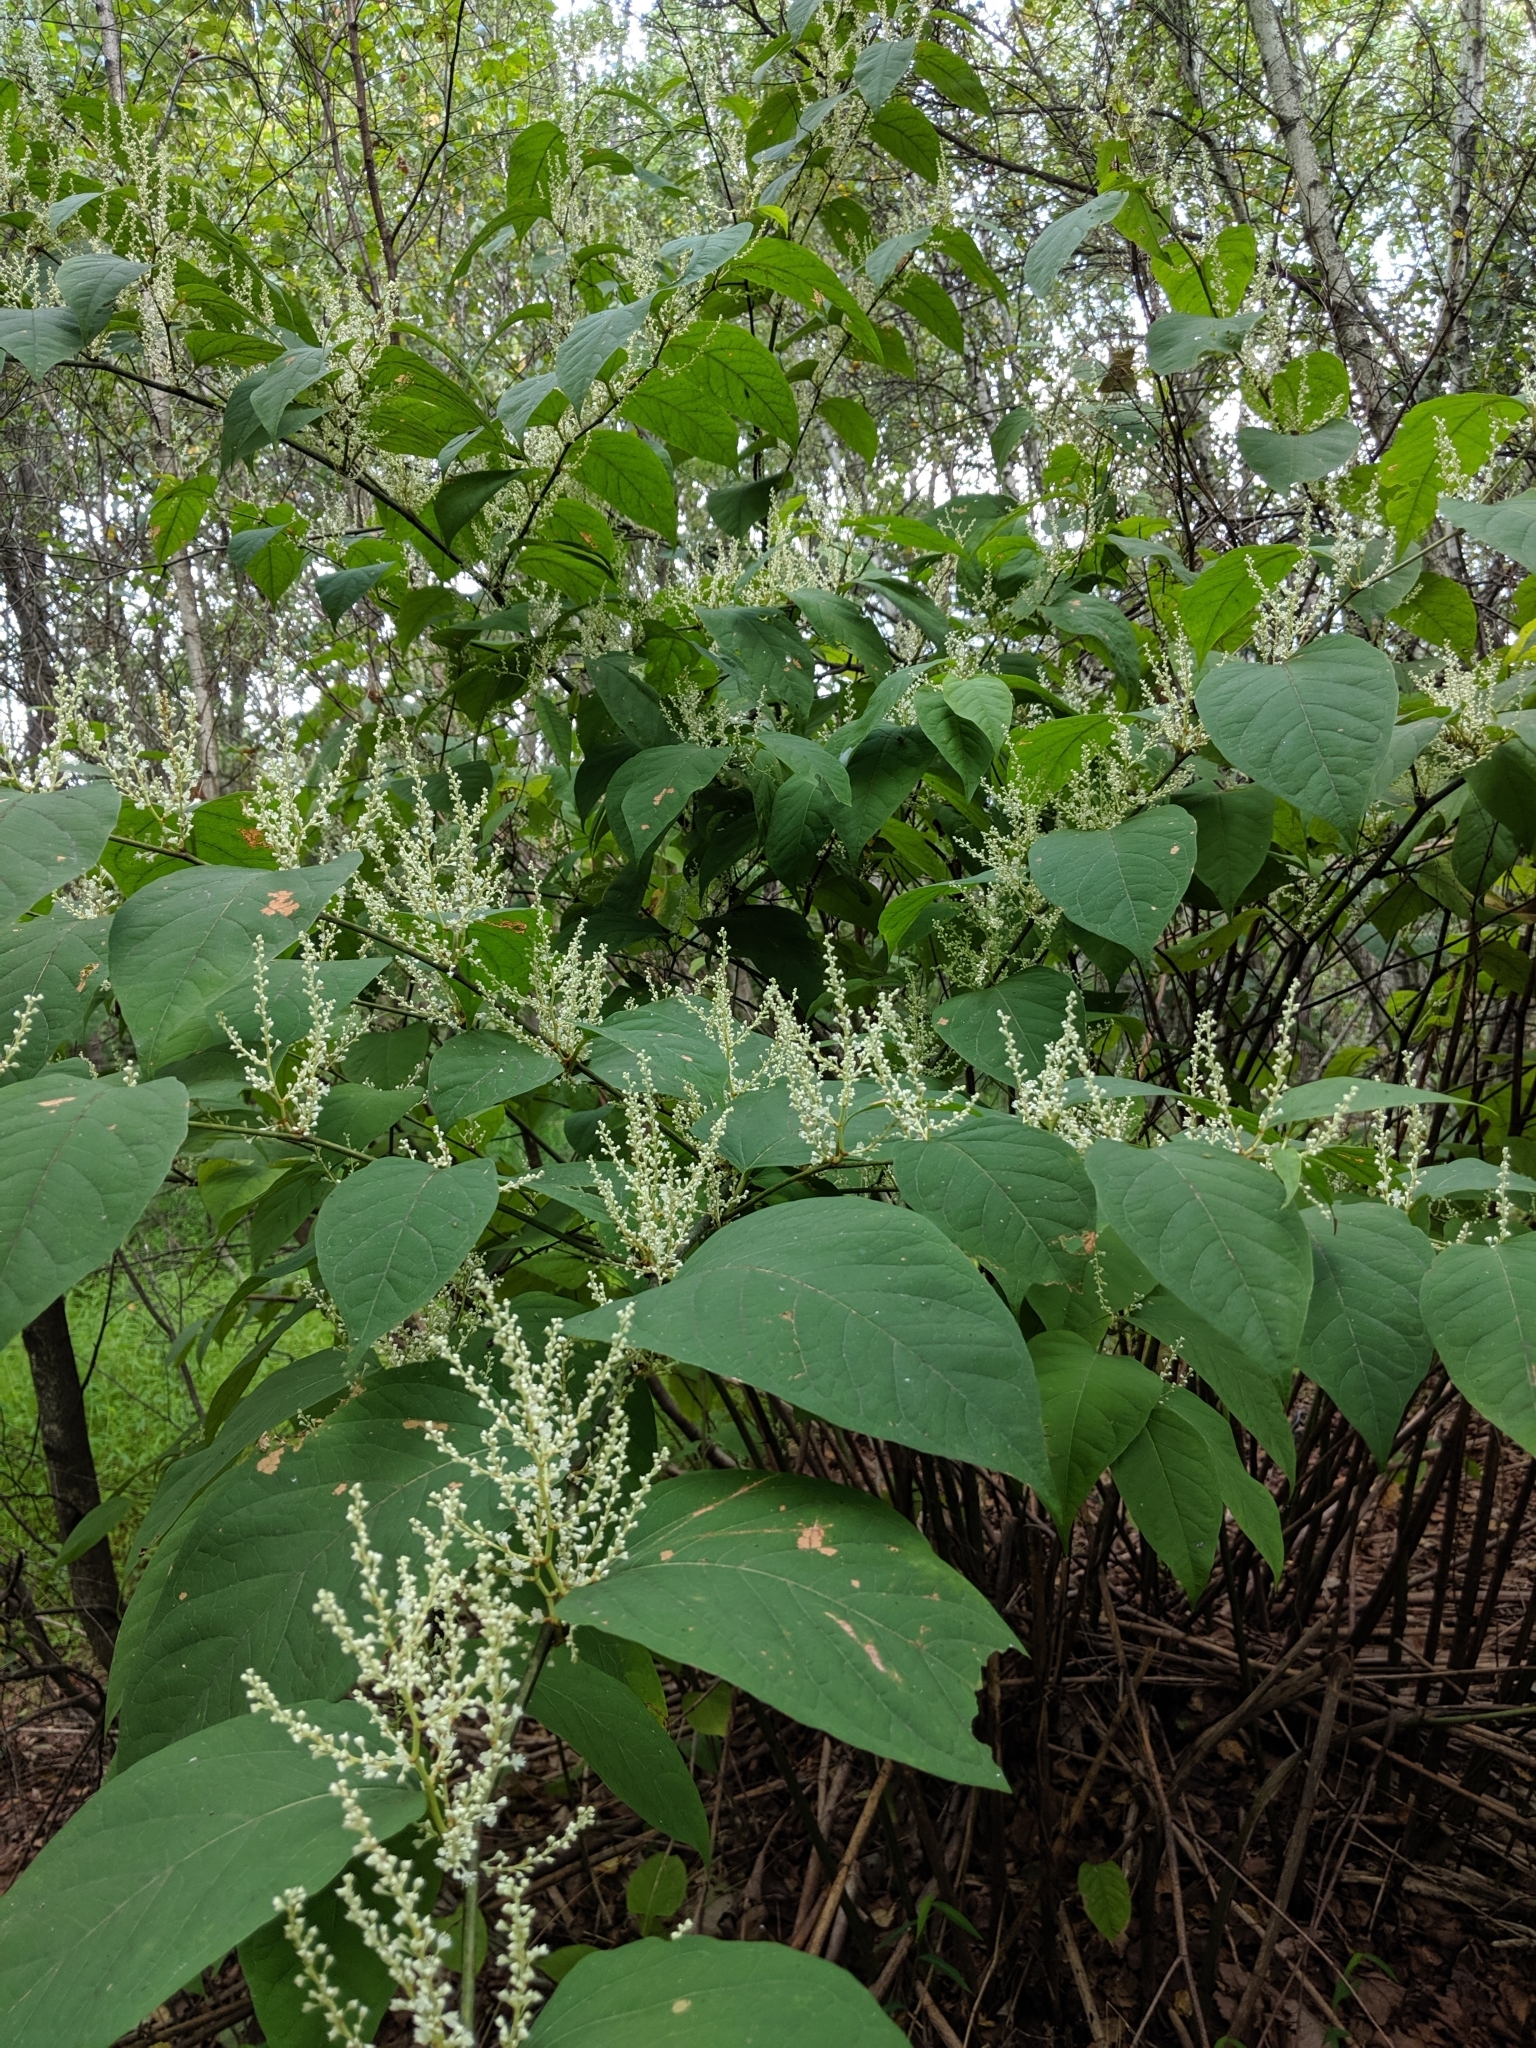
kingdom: Plantae
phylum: Tracheophyta
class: Magnoliopsida
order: Caryophyllales
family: Polygonaceae
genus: Reynoutria
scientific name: Reynoutria japonica
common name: Japanese knotweed
